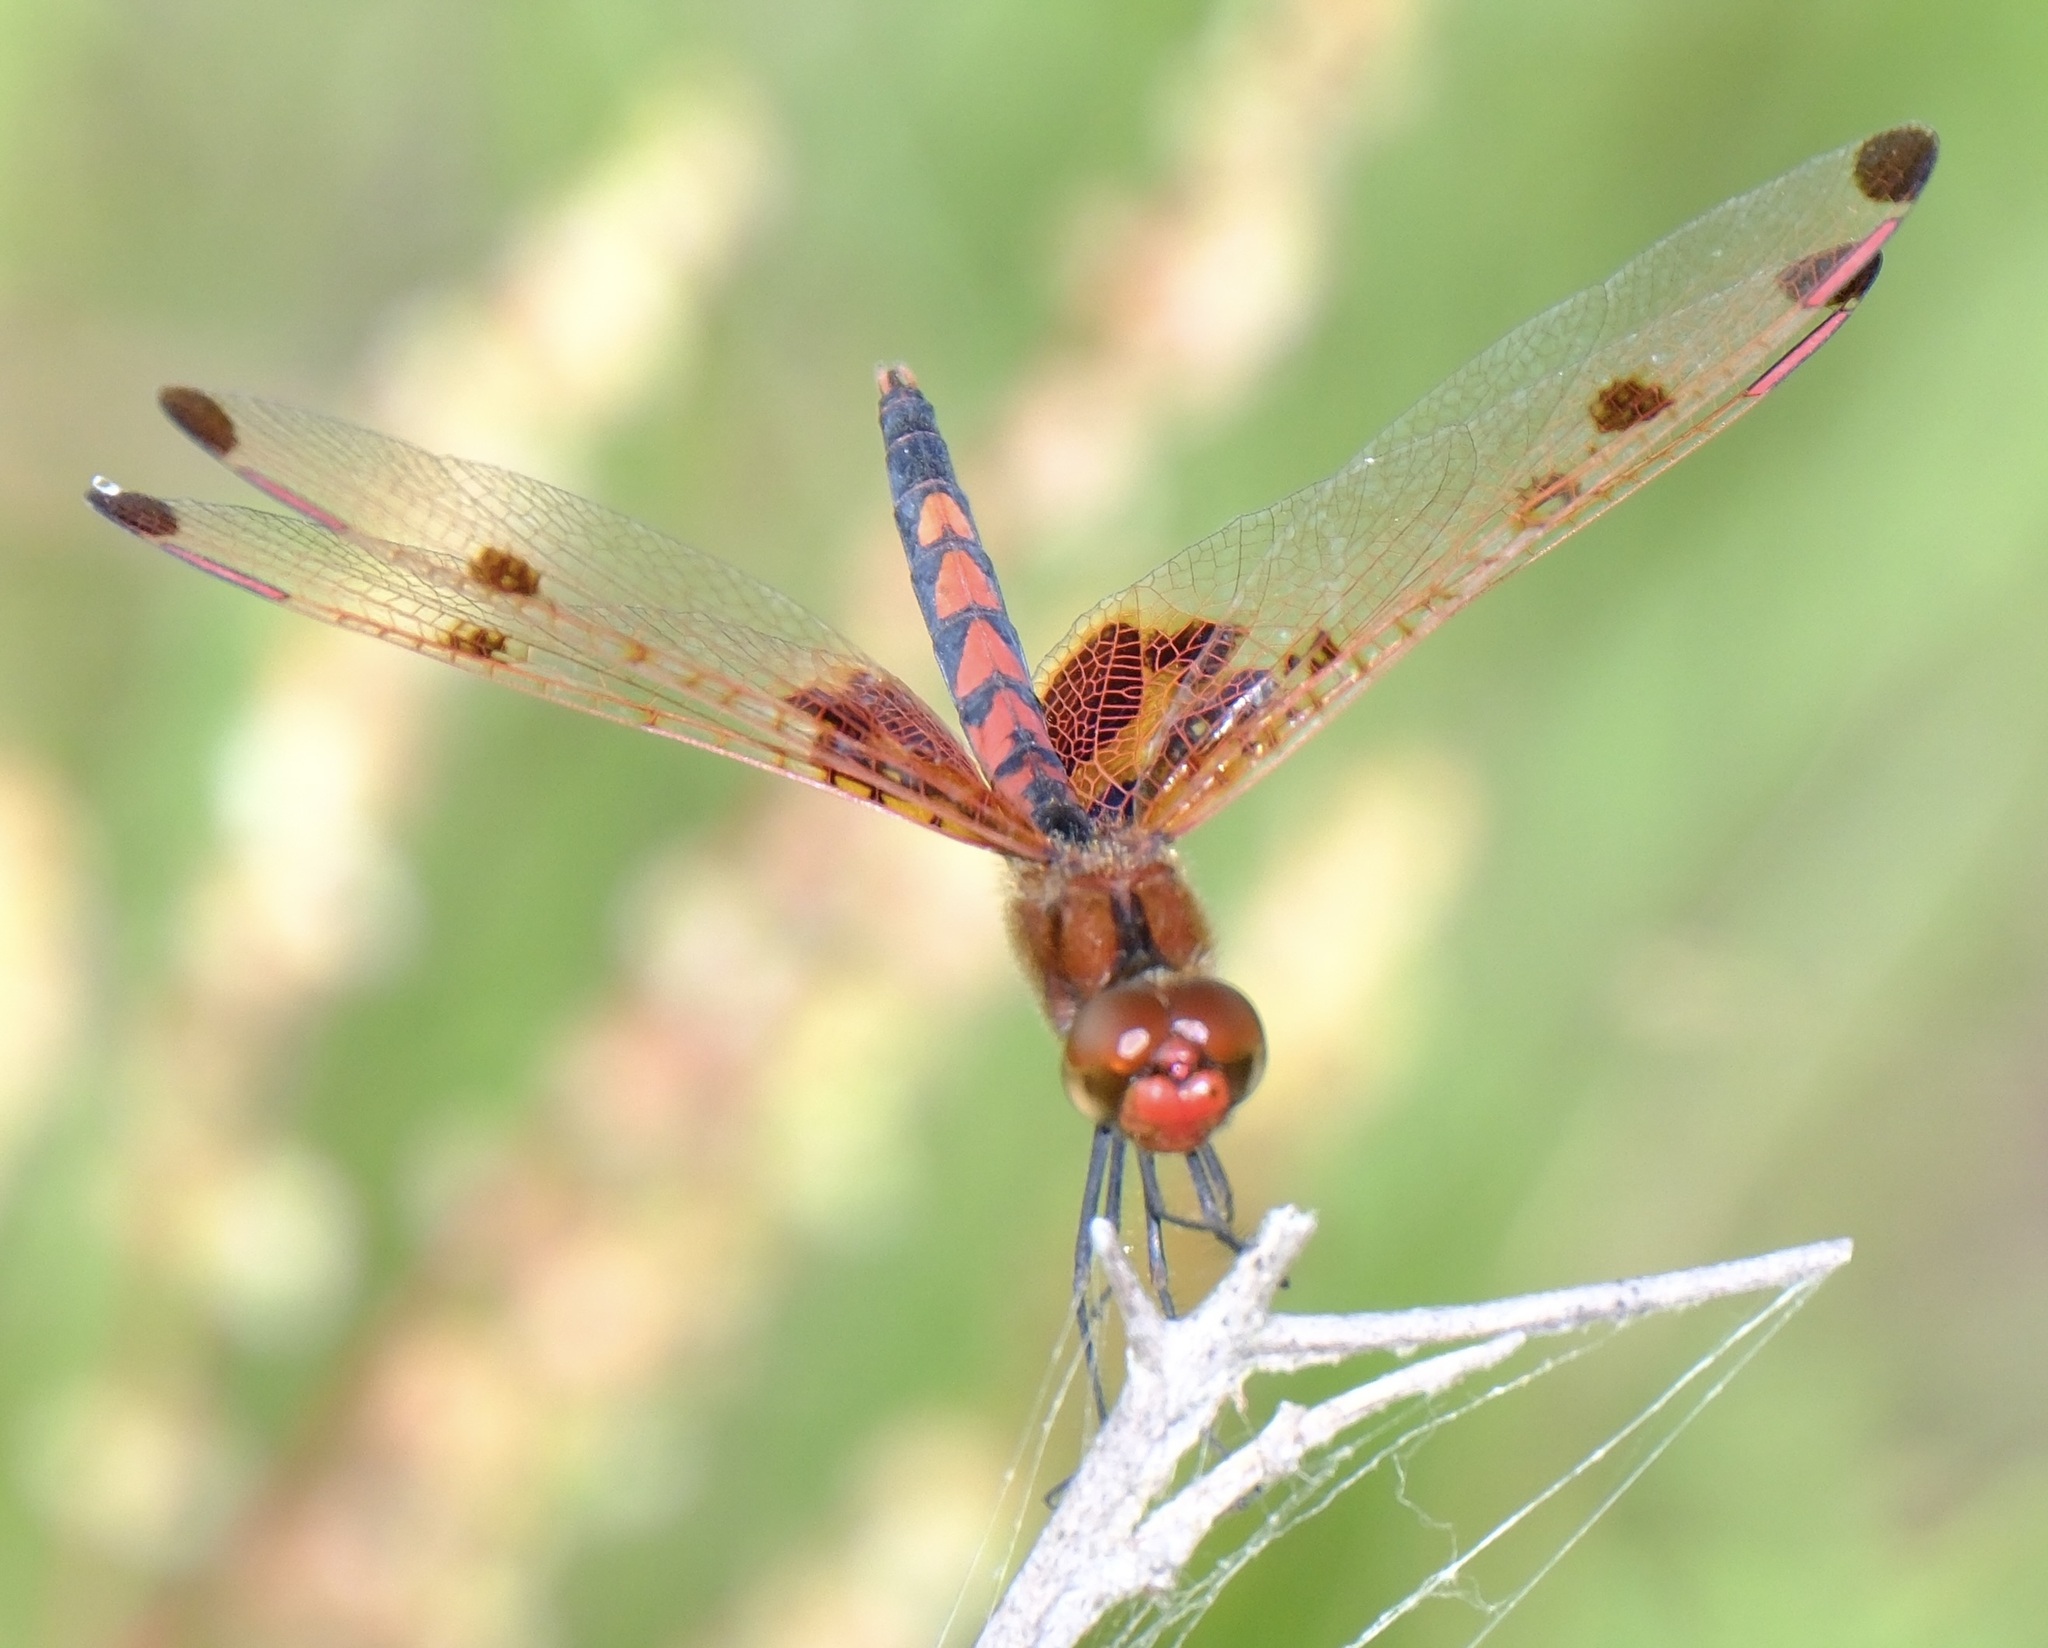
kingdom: Animalia
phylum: Arthropoda
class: Insecta
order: Odonata
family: Libellulidae
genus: Celithemis
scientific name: Celithemis elisa
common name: Calico pennant
